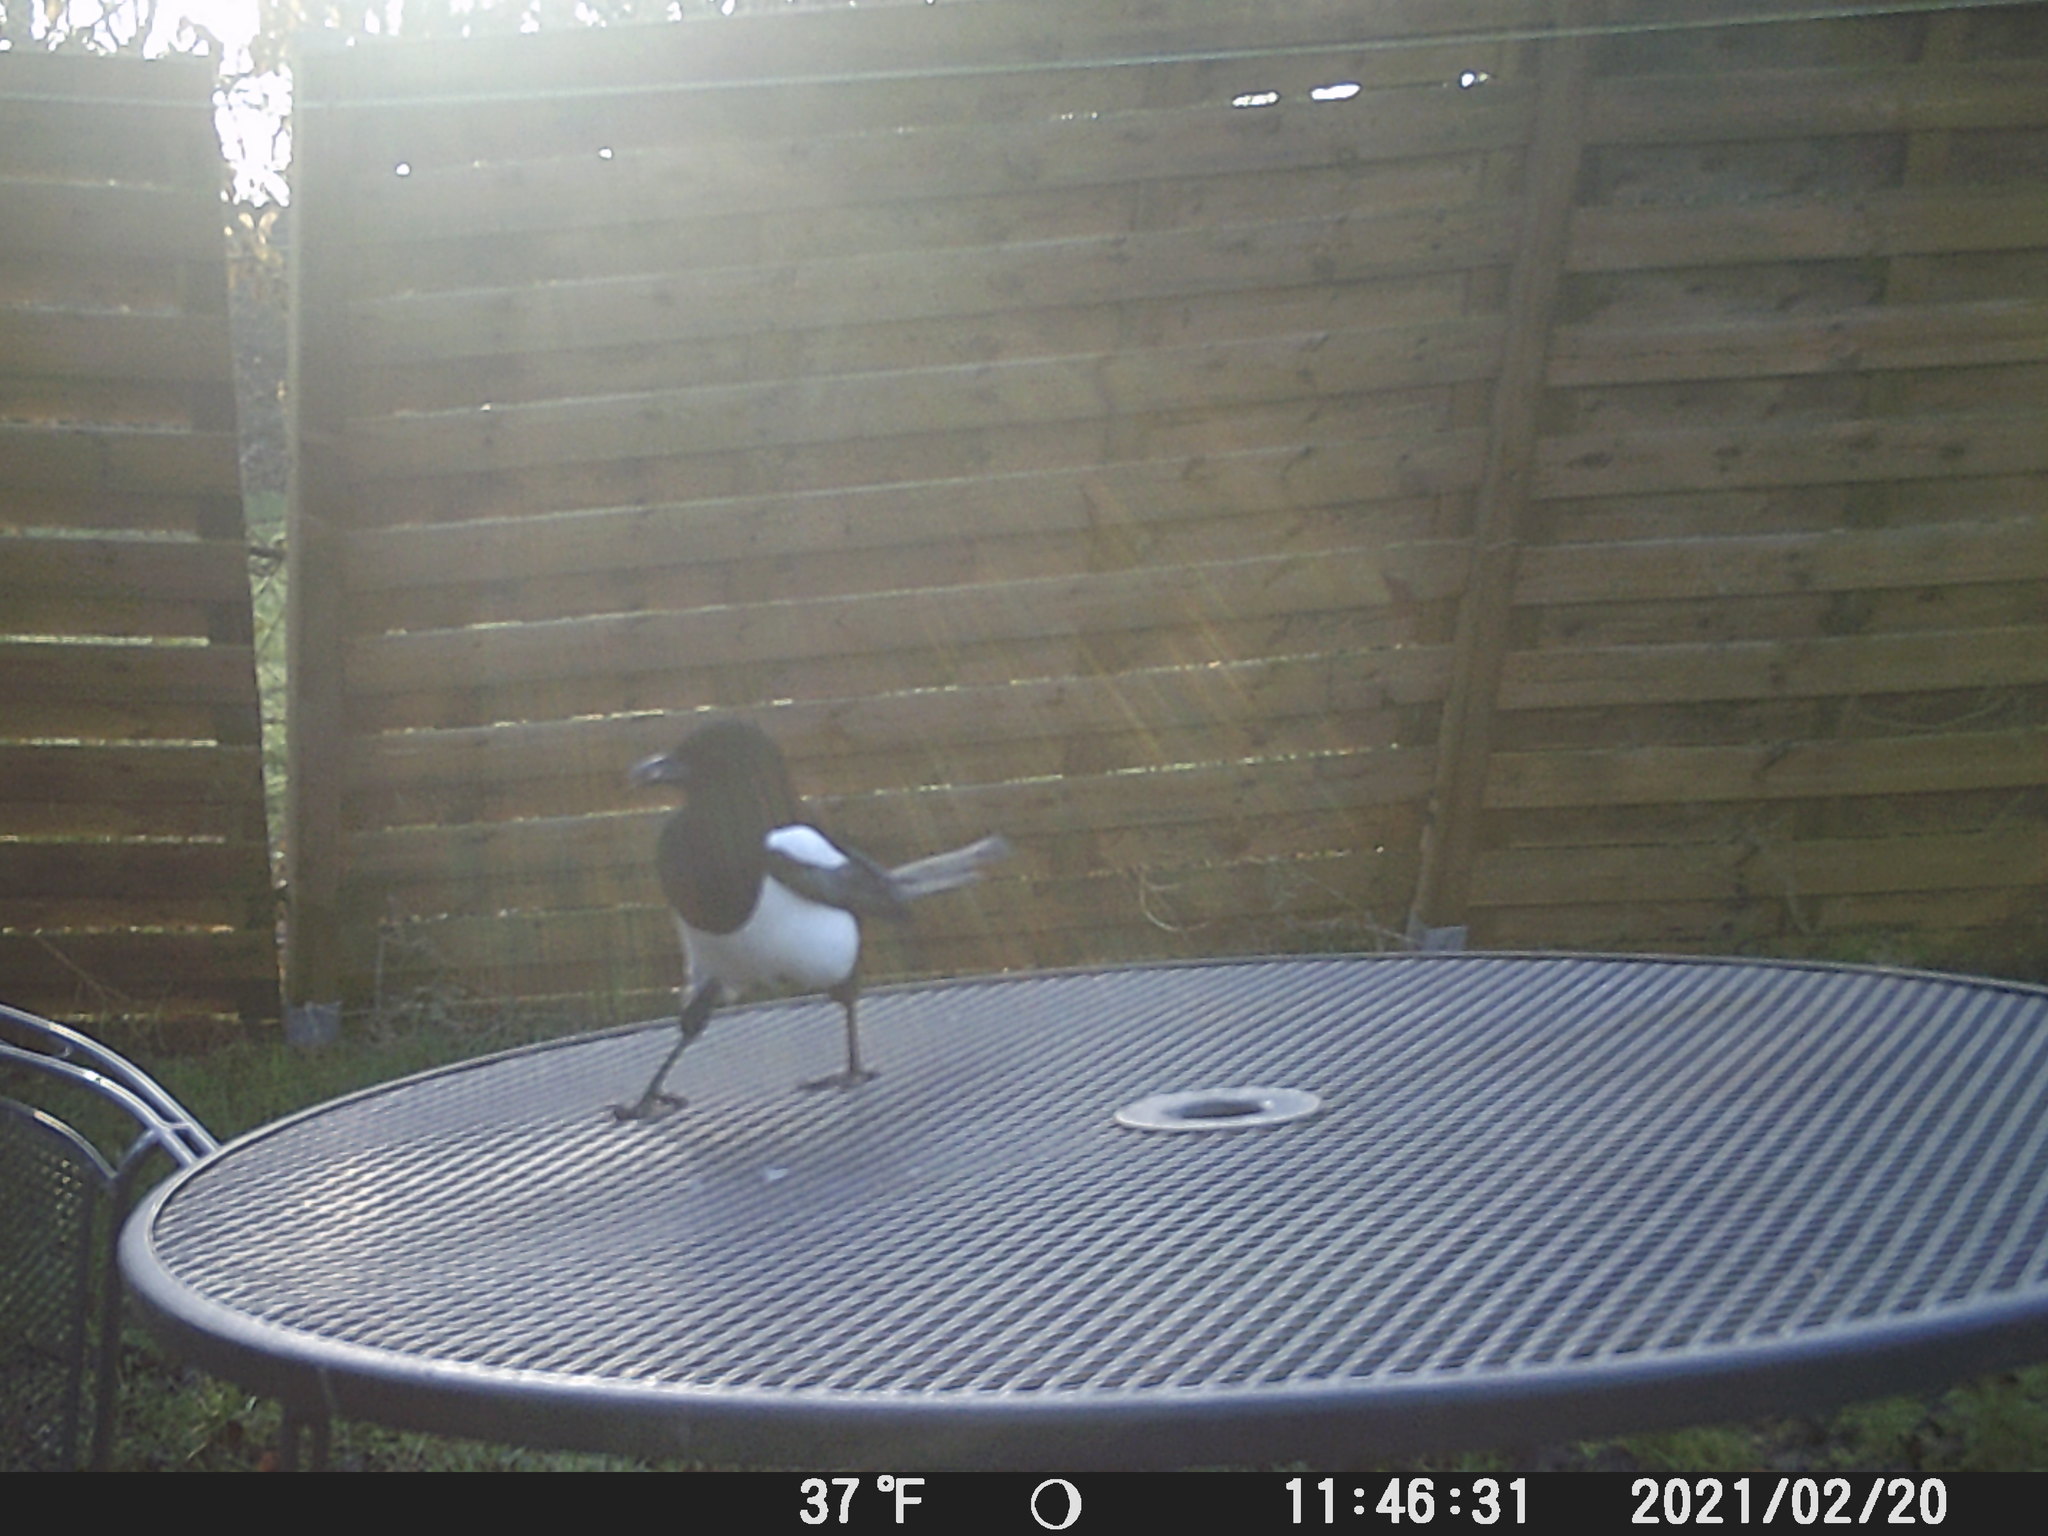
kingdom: Animalia
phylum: Chordata
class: Aves
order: Passeriformes
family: Corvidae
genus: Pica
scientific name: Pica pica
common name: Eurasian magpie
